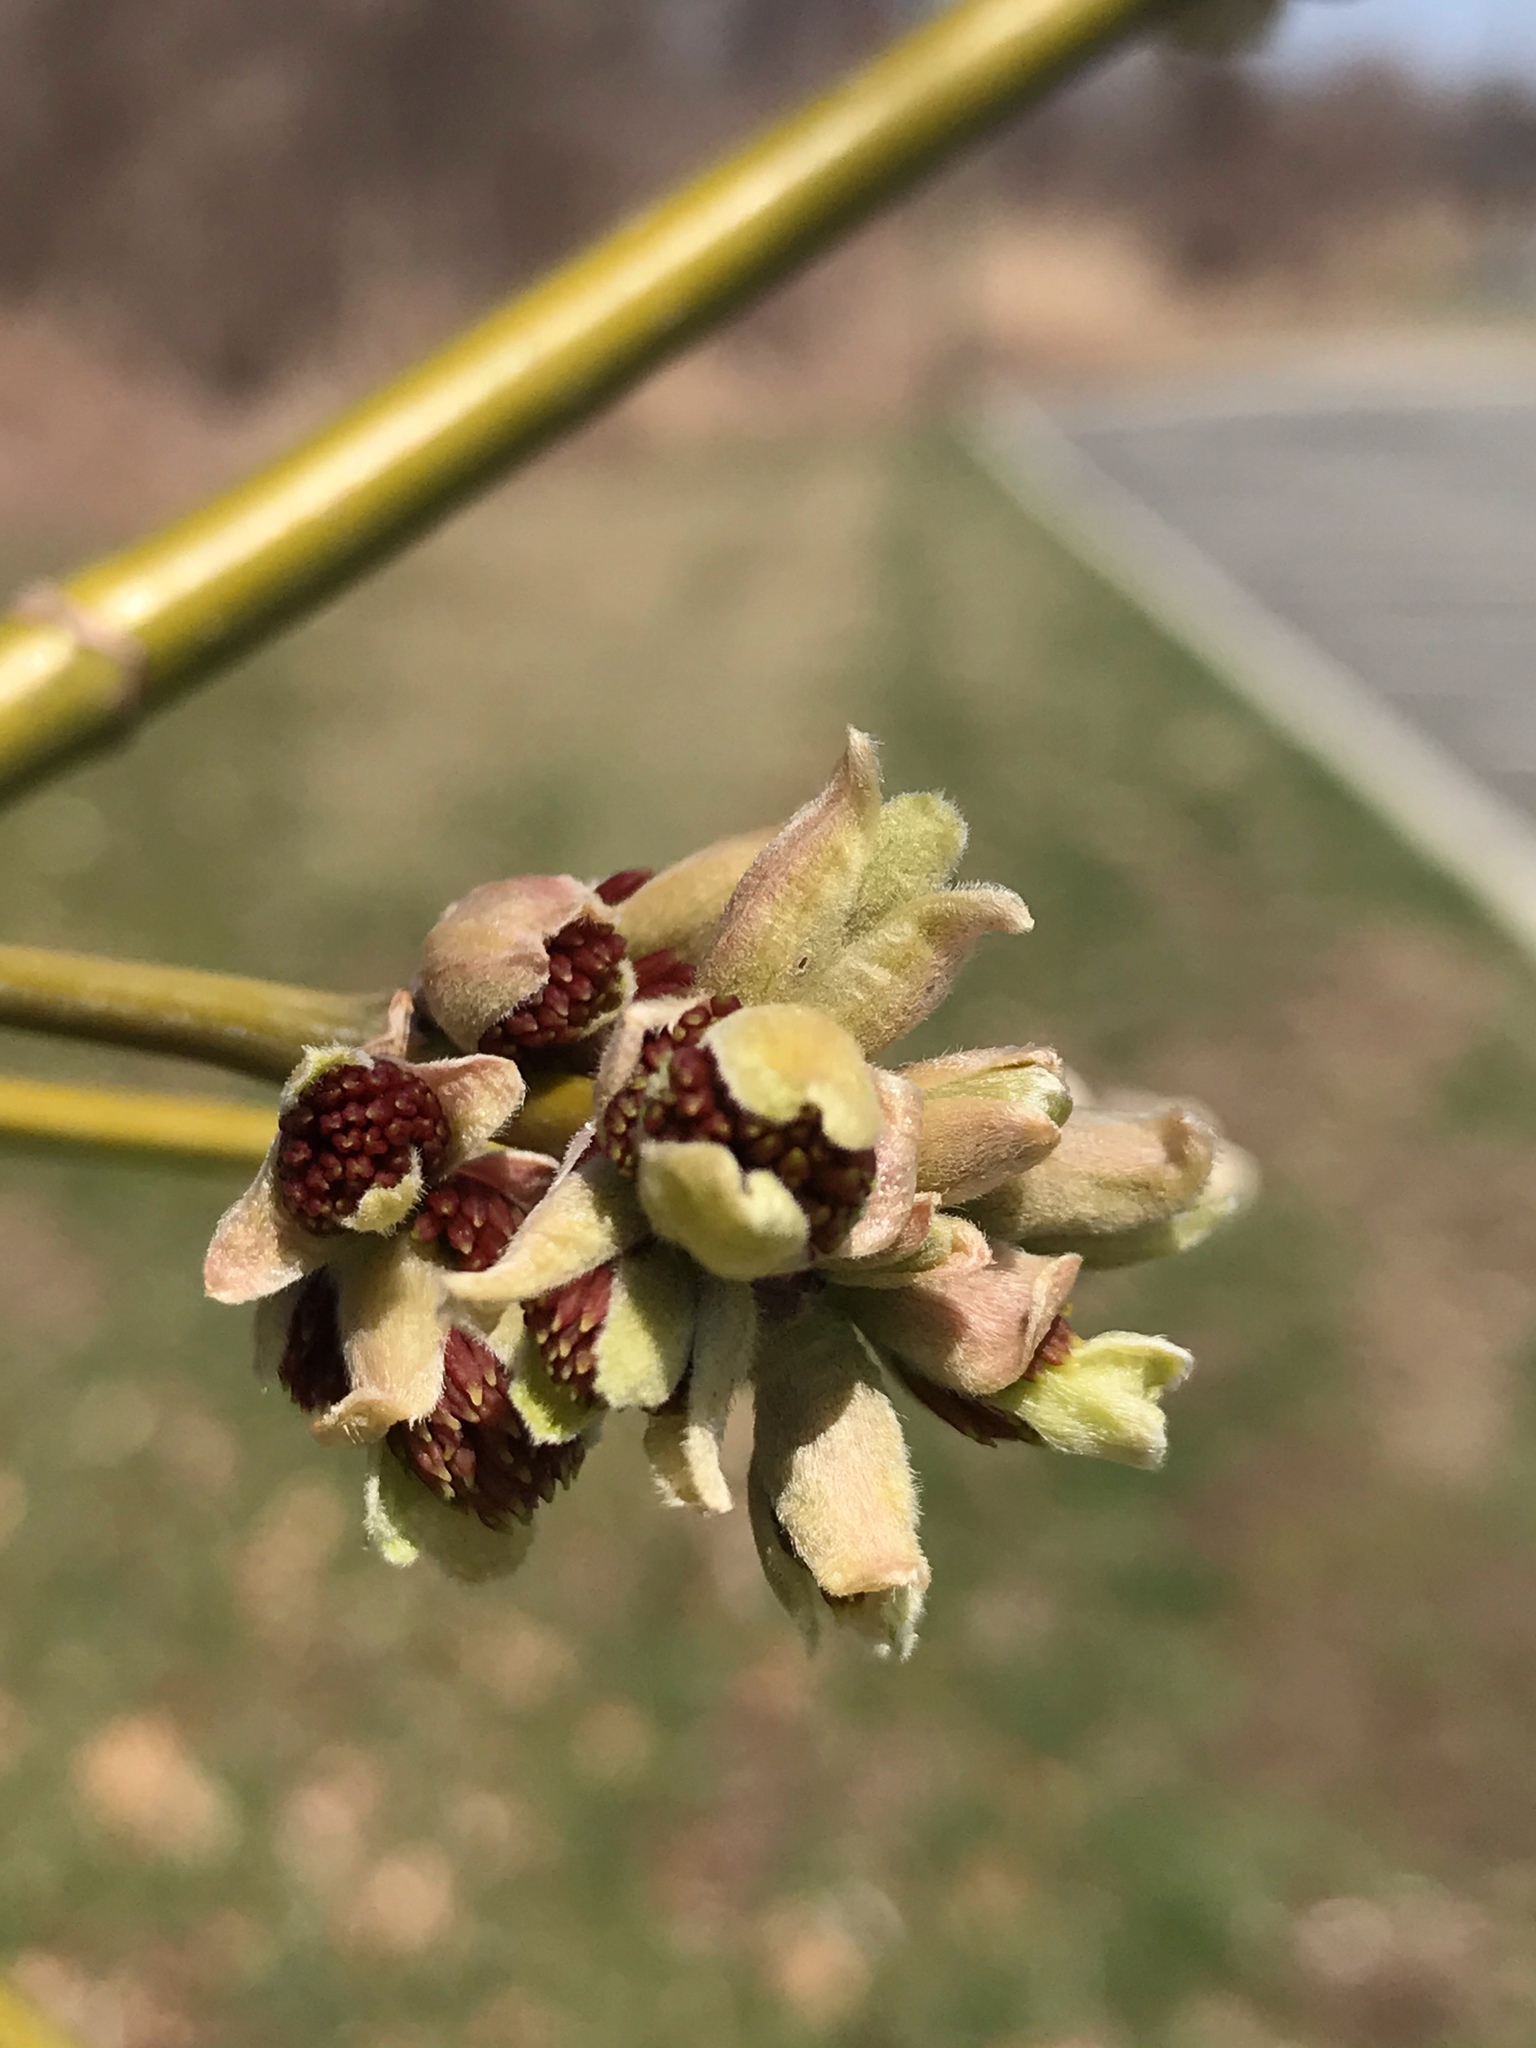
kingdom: Plantae
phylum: Tracheophyta
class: Magnoliopsida
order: Sapindales
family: Sapindaceae
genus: Acer
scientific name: Acer negundo
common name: Ashleaf maple
